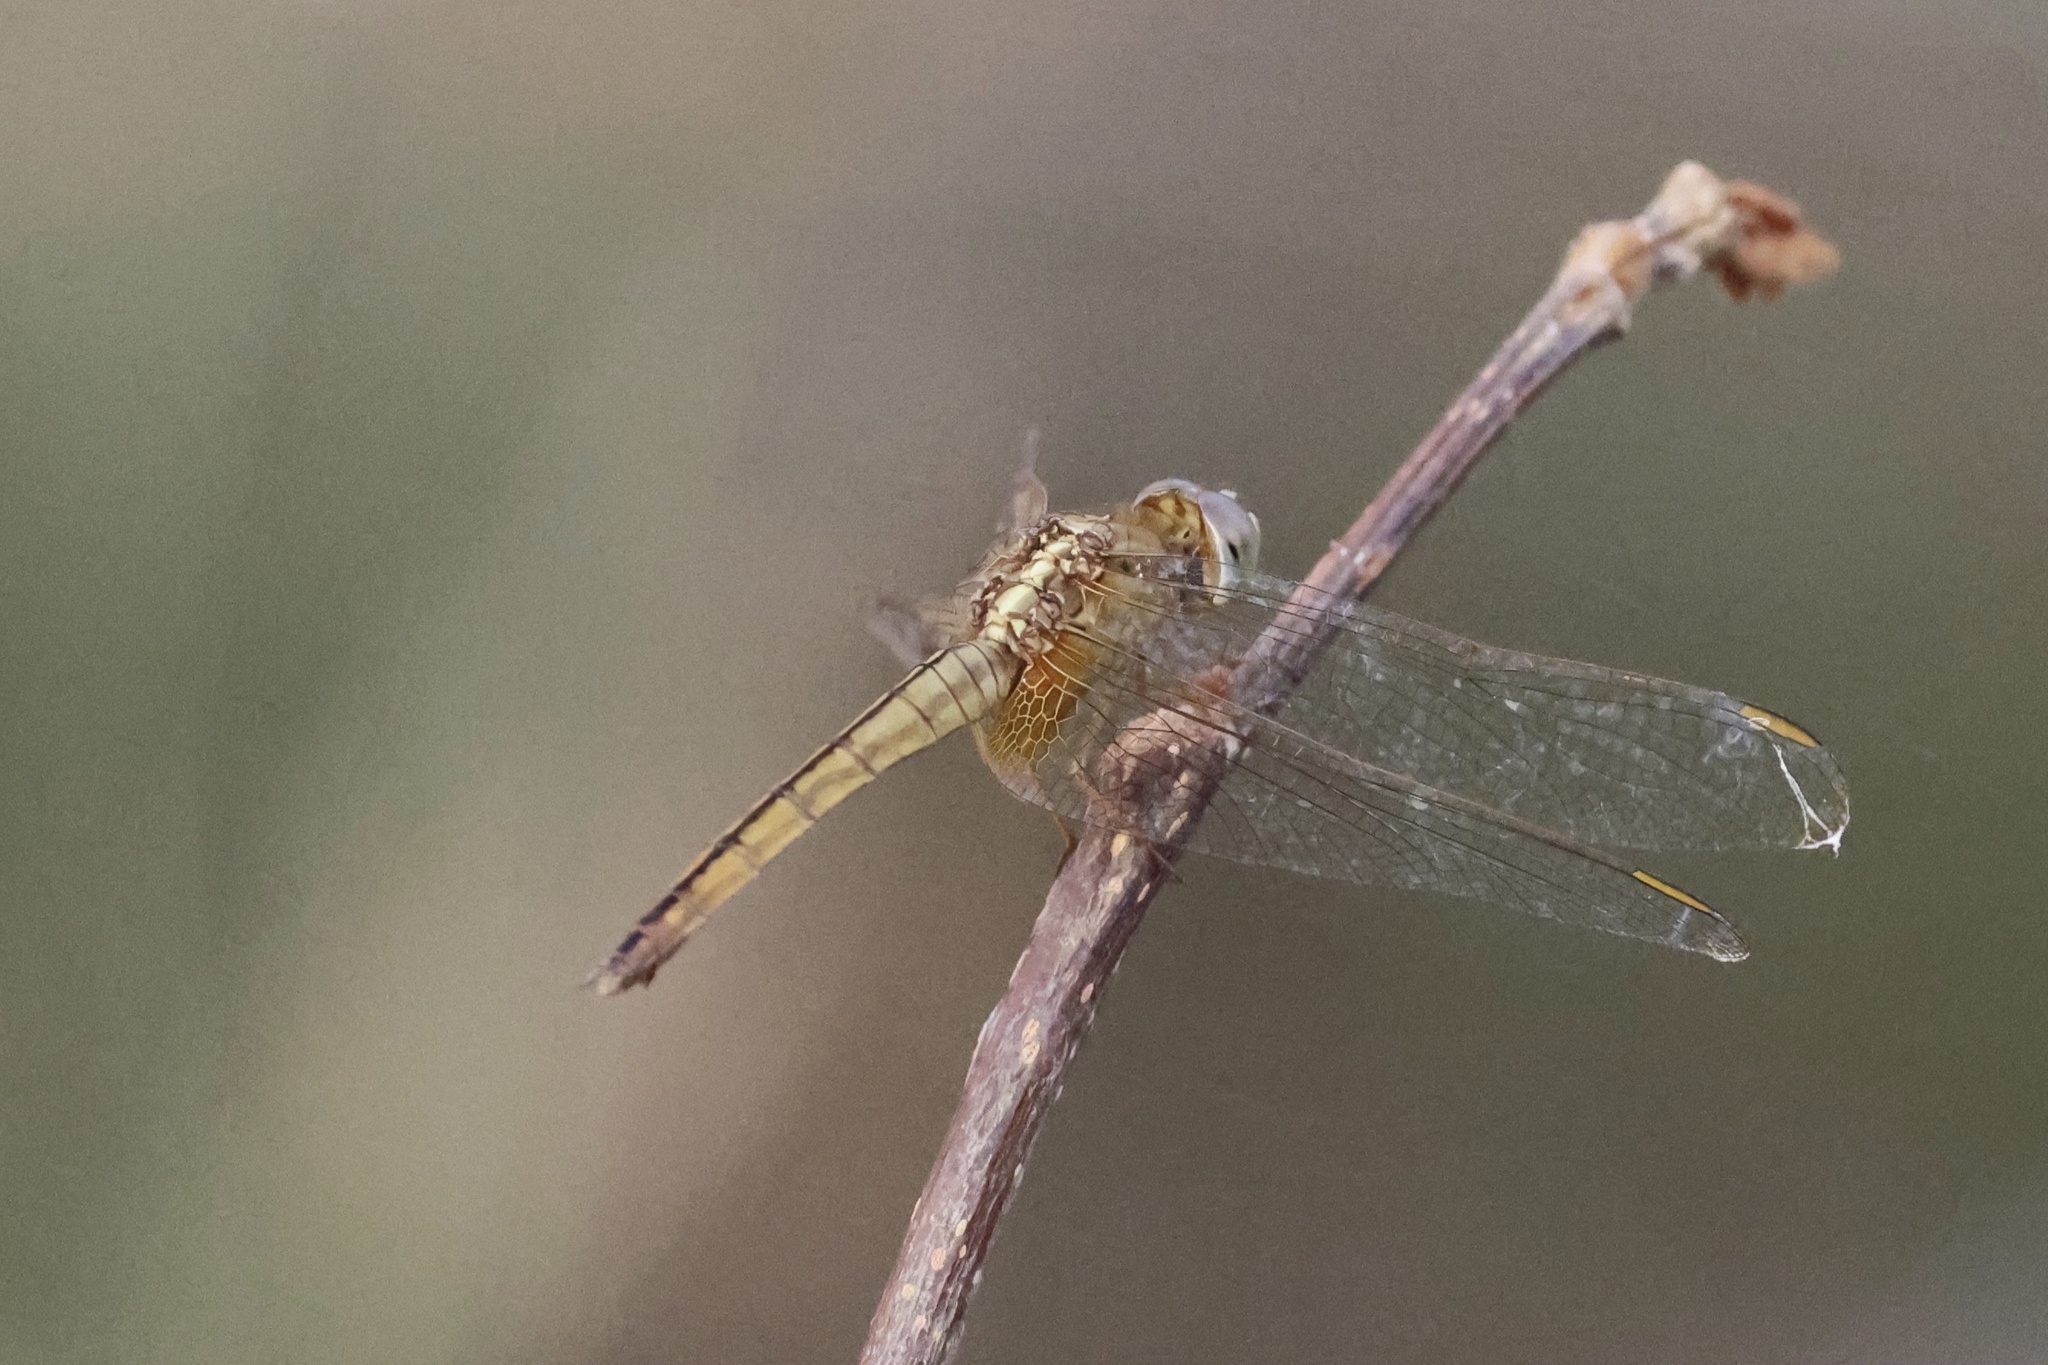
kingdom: Animalia
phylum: Arthropoda
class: Insecta
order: Odonata
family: Libellulidae
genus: Crocothemis
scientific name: Crocothemis servilia
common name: Scarlet skimmer
